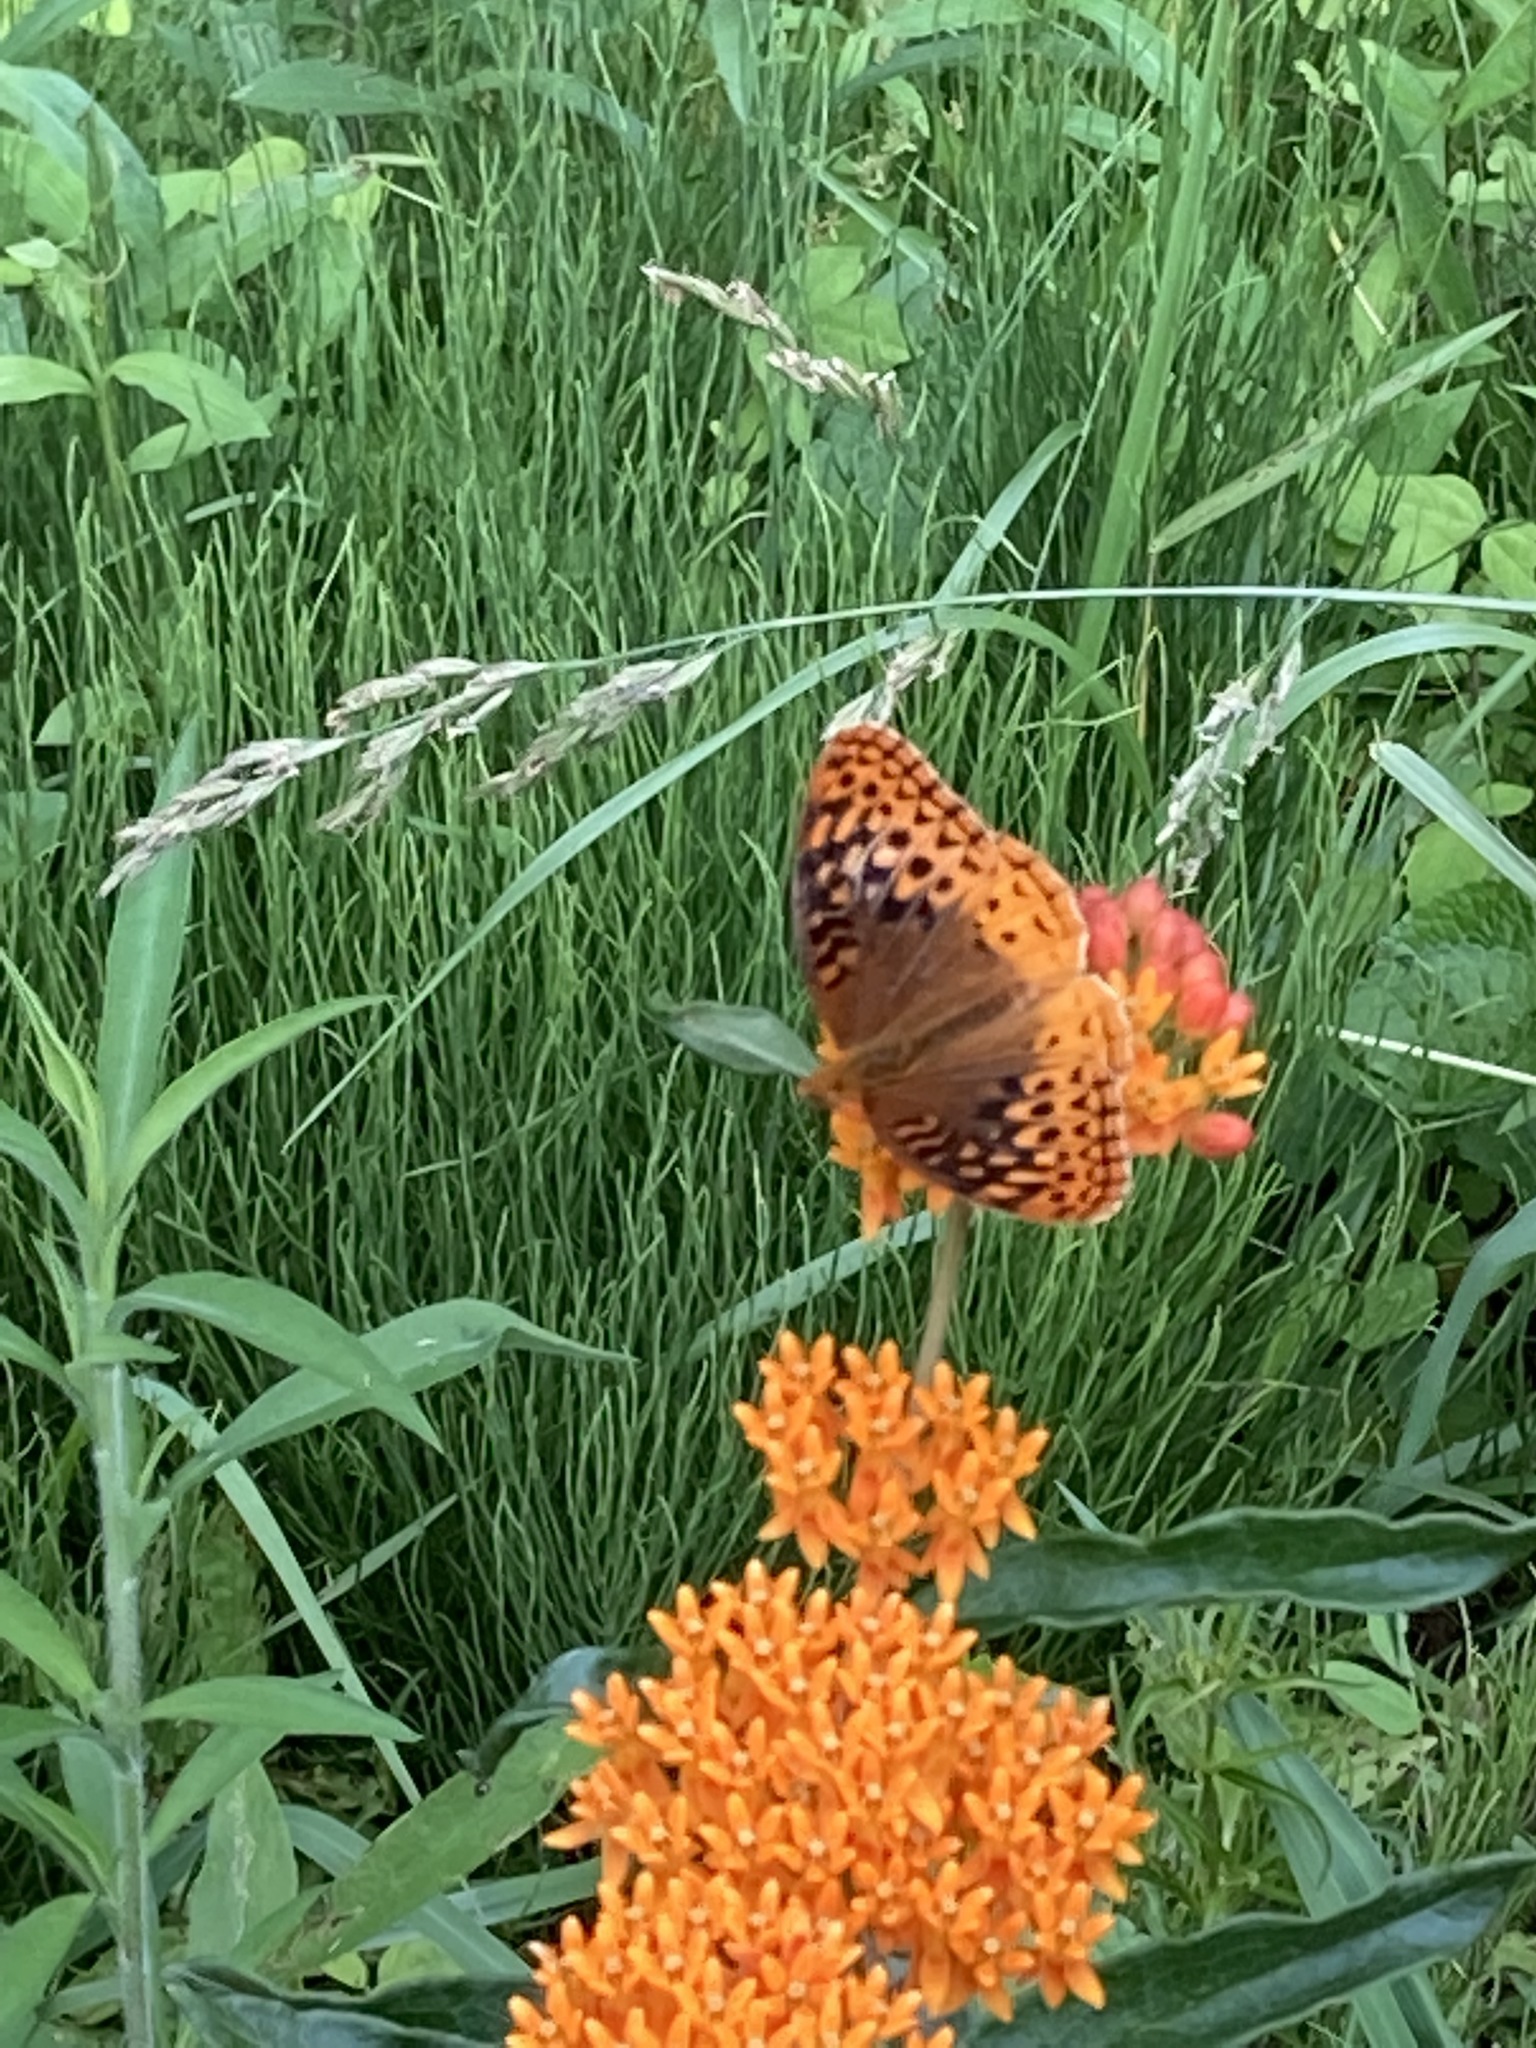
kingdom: Animalia
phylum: Arthropoda
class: Insecta
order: Lepidoptera
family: Nymphalidae
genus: Speyeria
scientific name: Speyeria cybele
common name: Great spangled fritillary
